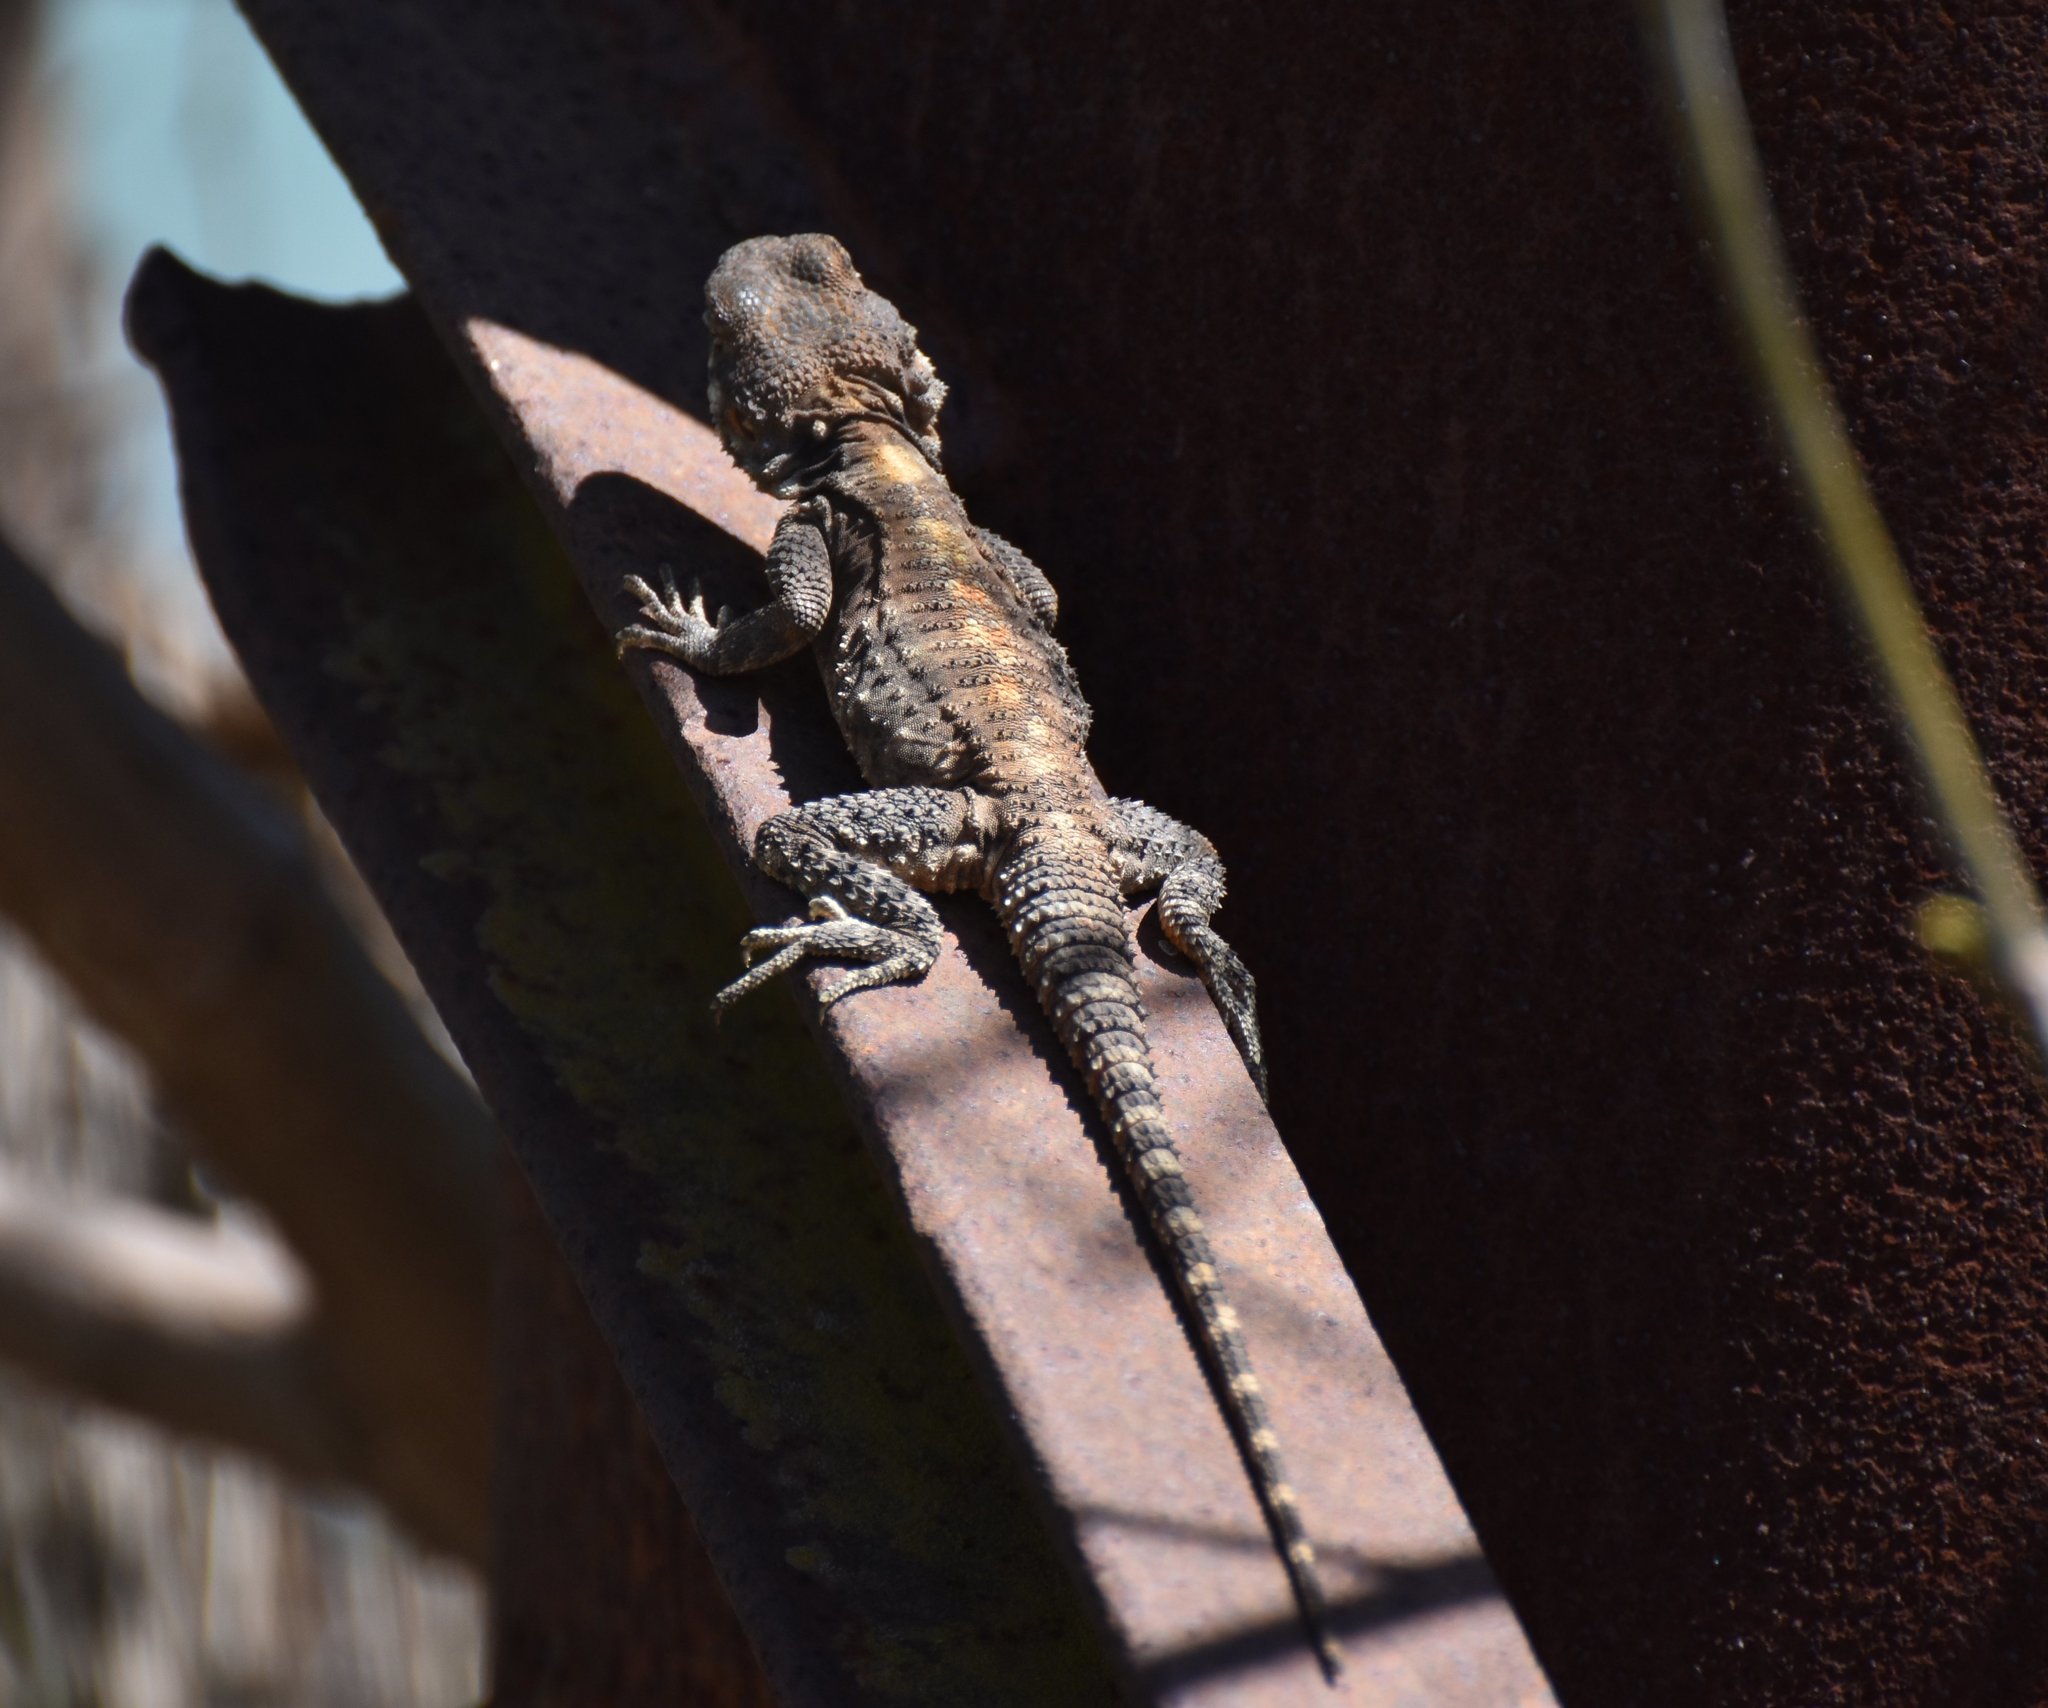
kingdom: Animalia
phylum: Chordata
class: Squamata
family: Agamidae
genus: Laudakia
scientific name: Laudakia vulgaris
